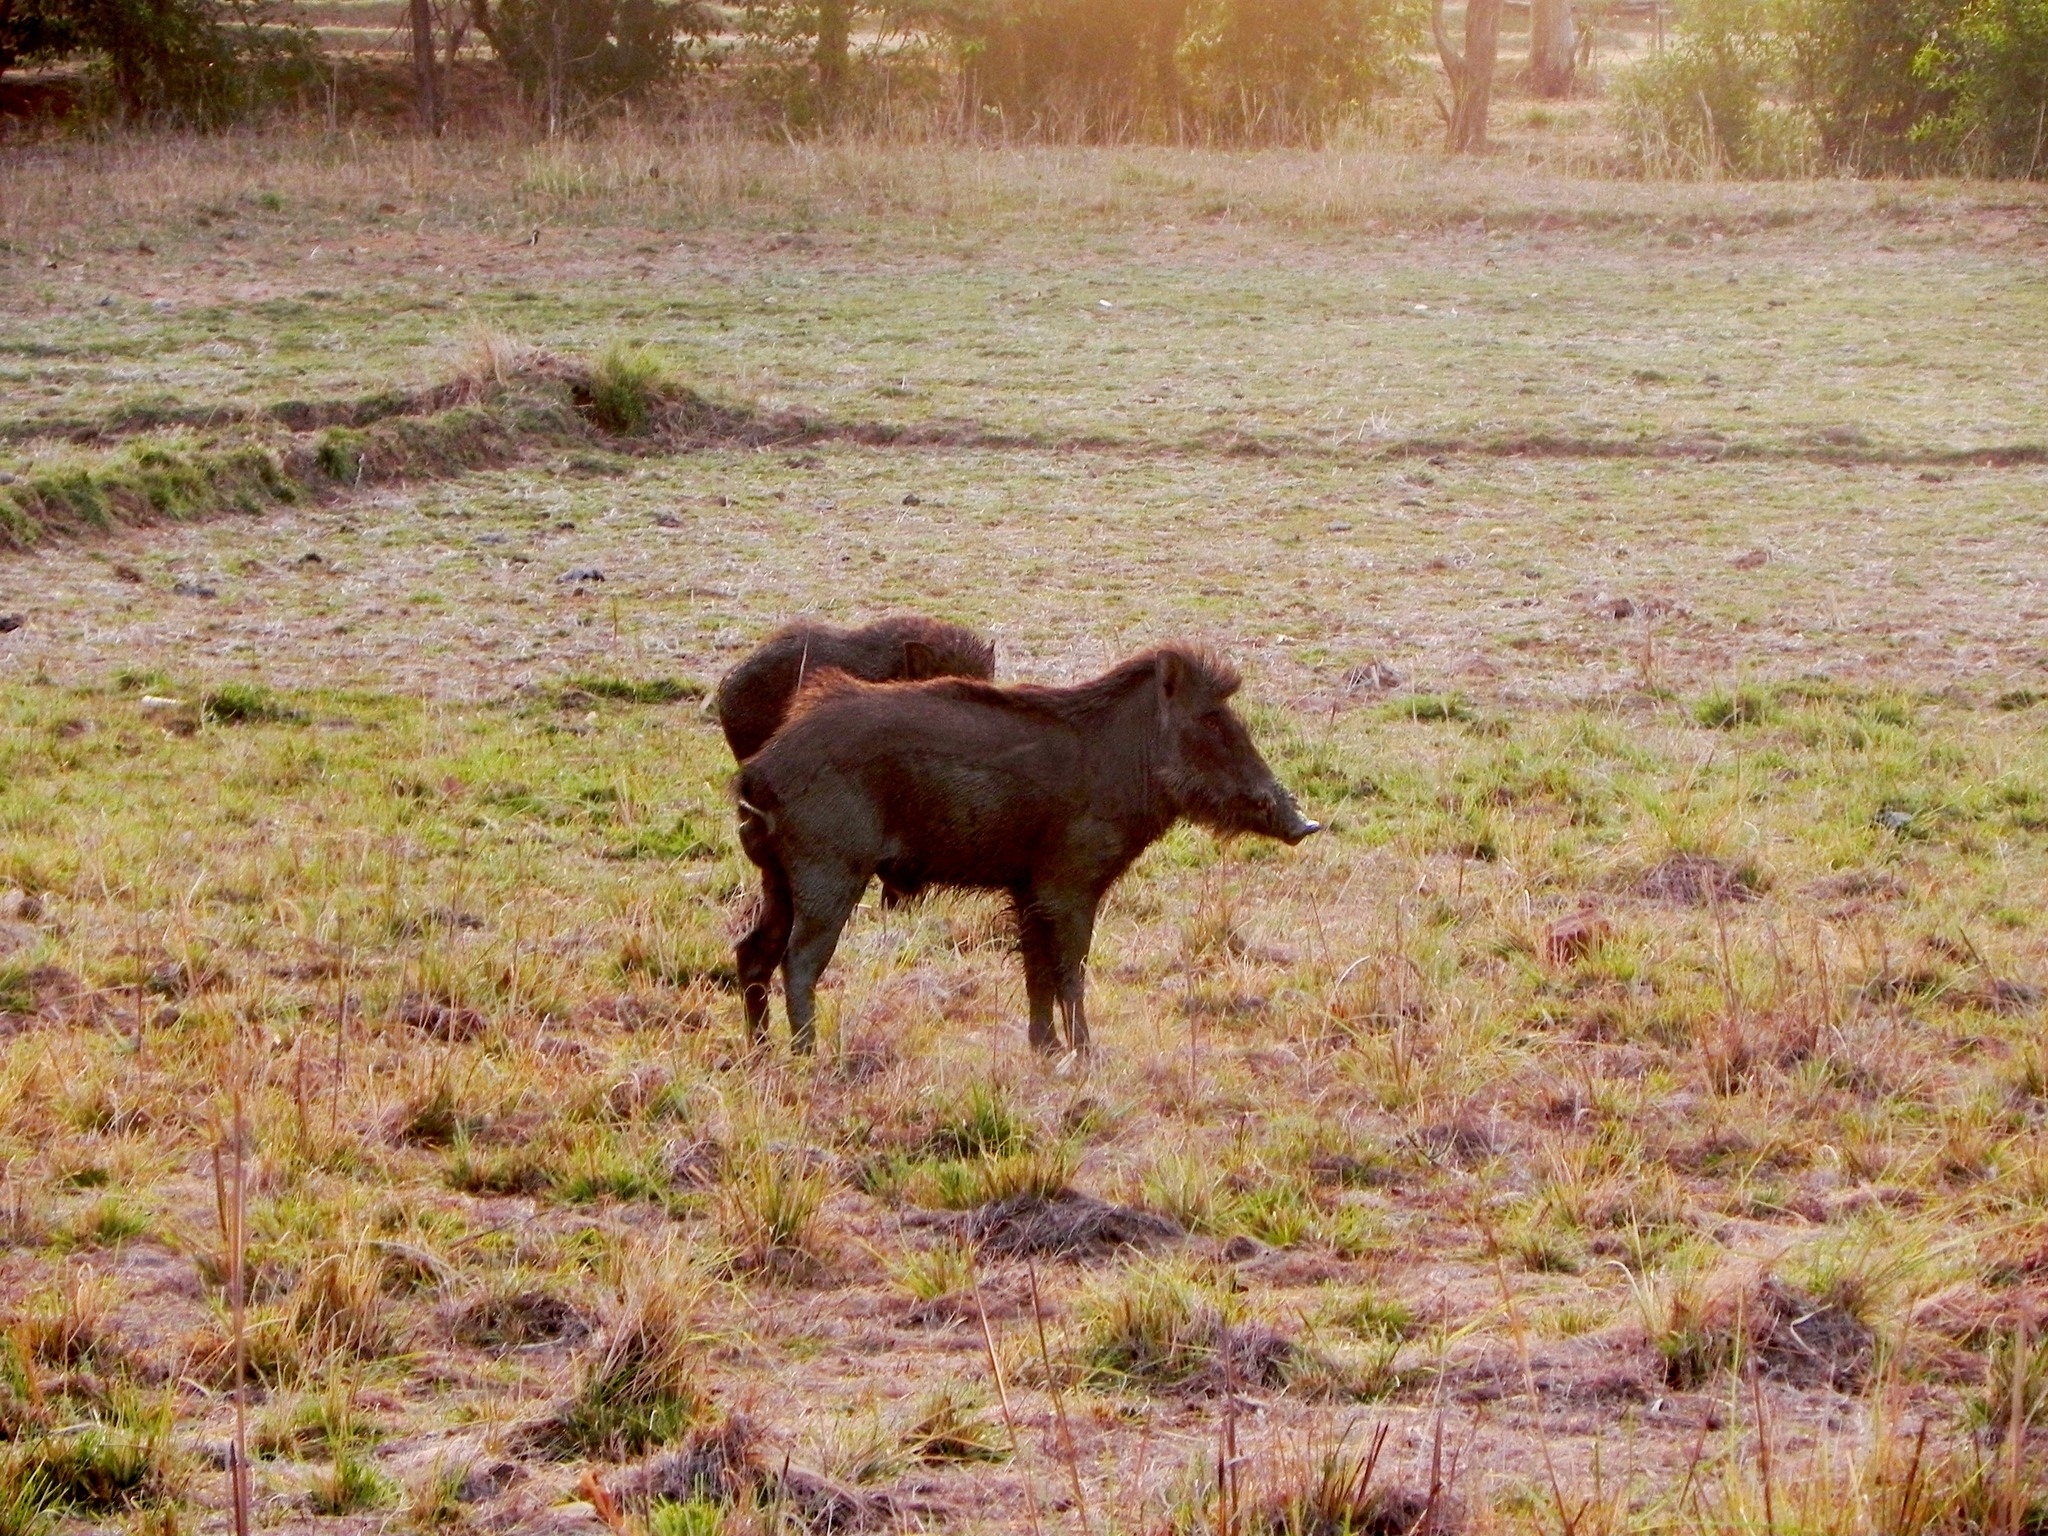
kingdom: Animalia
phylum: Chordata
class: Mammalia
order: Artiodactyla
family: Suidae
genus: Sus
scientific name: Sus scrofa
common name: Wild boar
